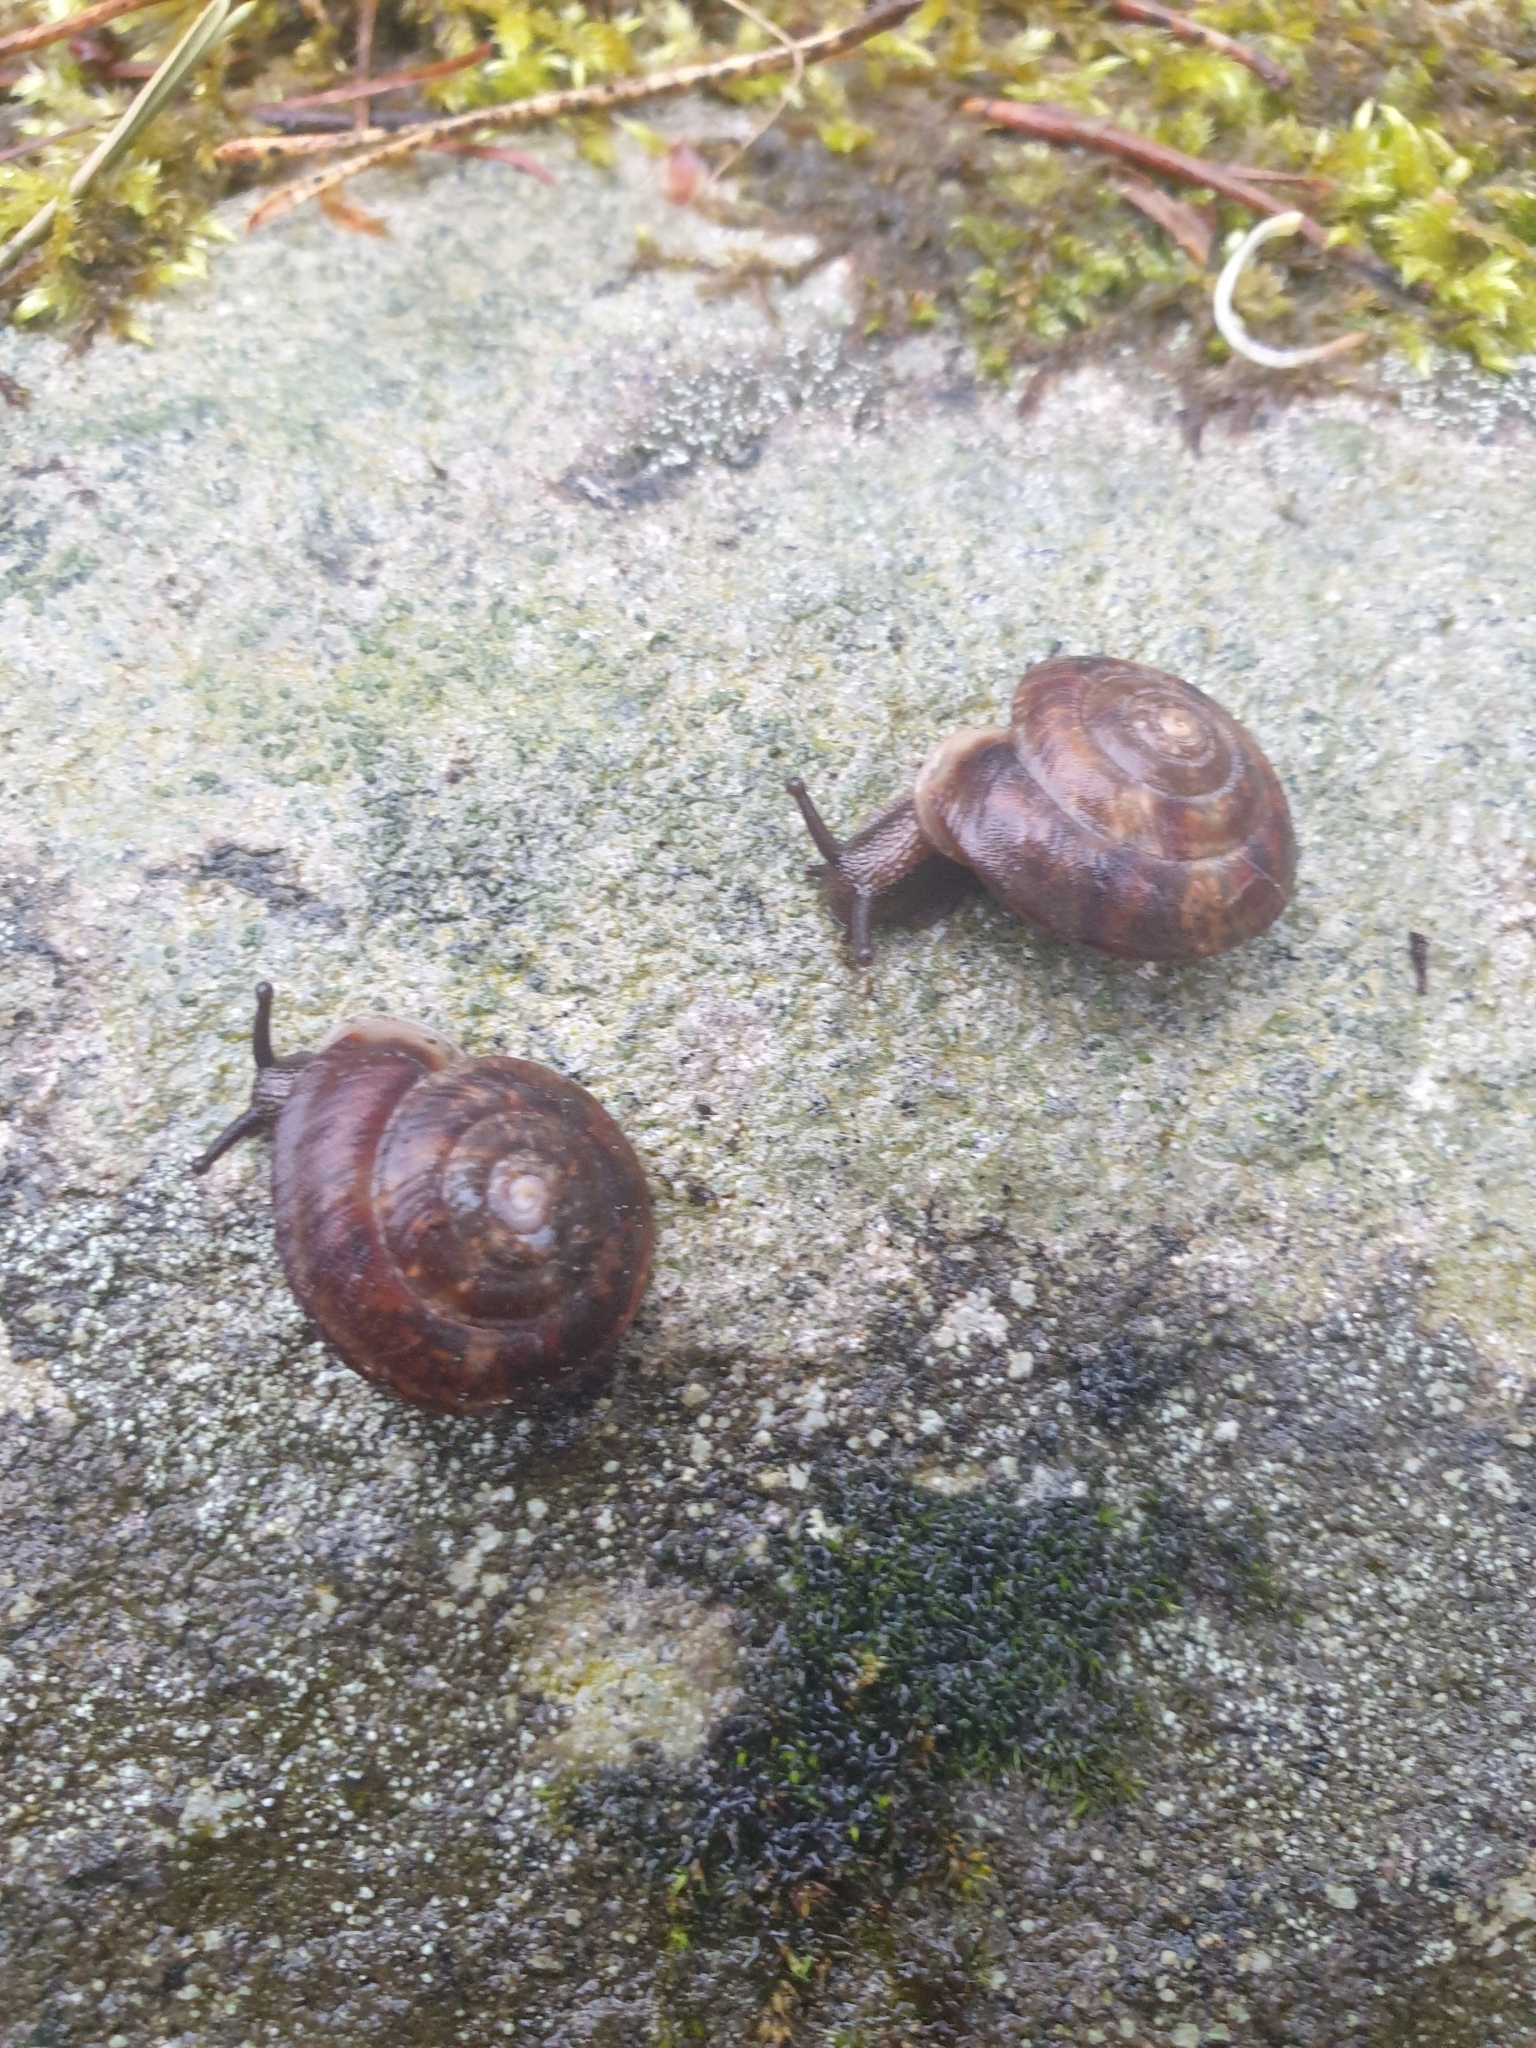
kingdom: Animalia
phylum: Mollusca
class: Gastropoda
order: Stylommatophora
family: Helicidae
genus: Helicigona
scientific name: Helicigona lapicida
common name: Lapidary snail
